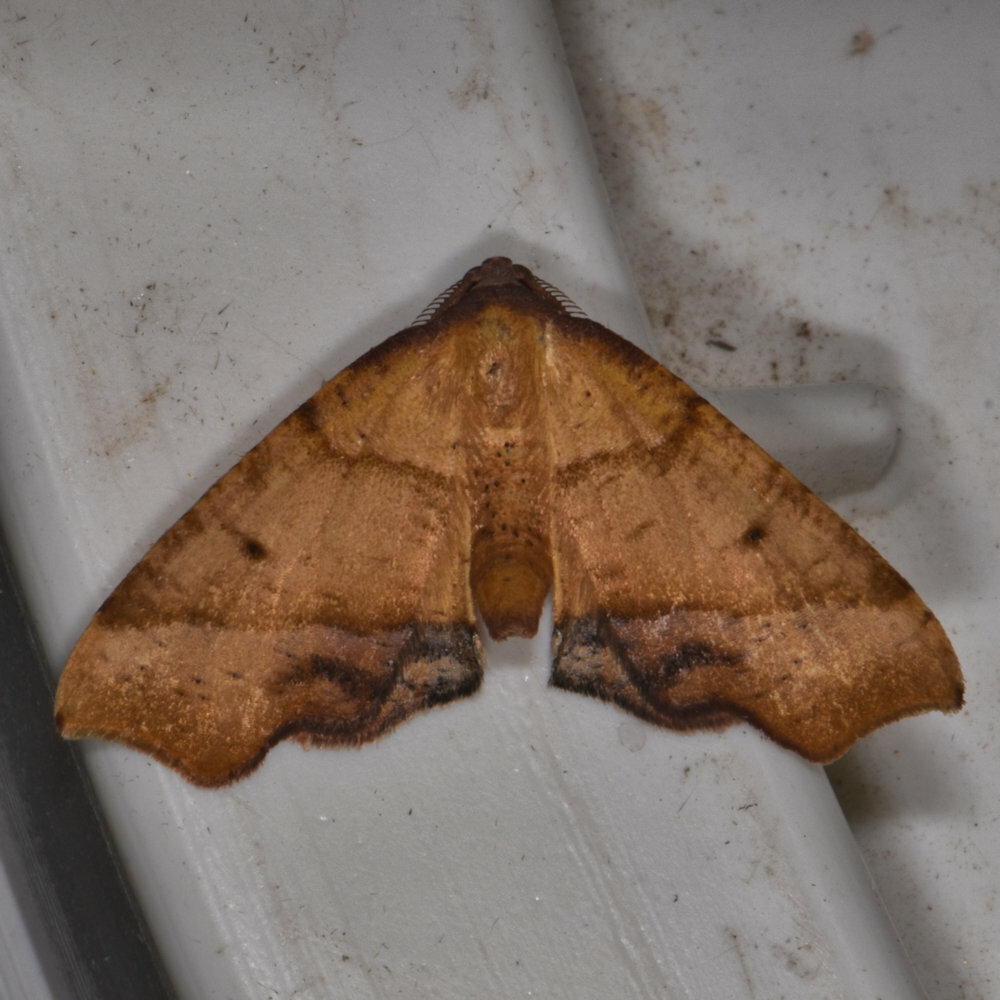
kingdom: Animalia
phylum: Arthropoda
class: Insecta
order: Lepidoptera
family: Geometridae
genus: Plagodis
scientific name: Plagodis phlogosaria
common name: Straight-lined plagodis
